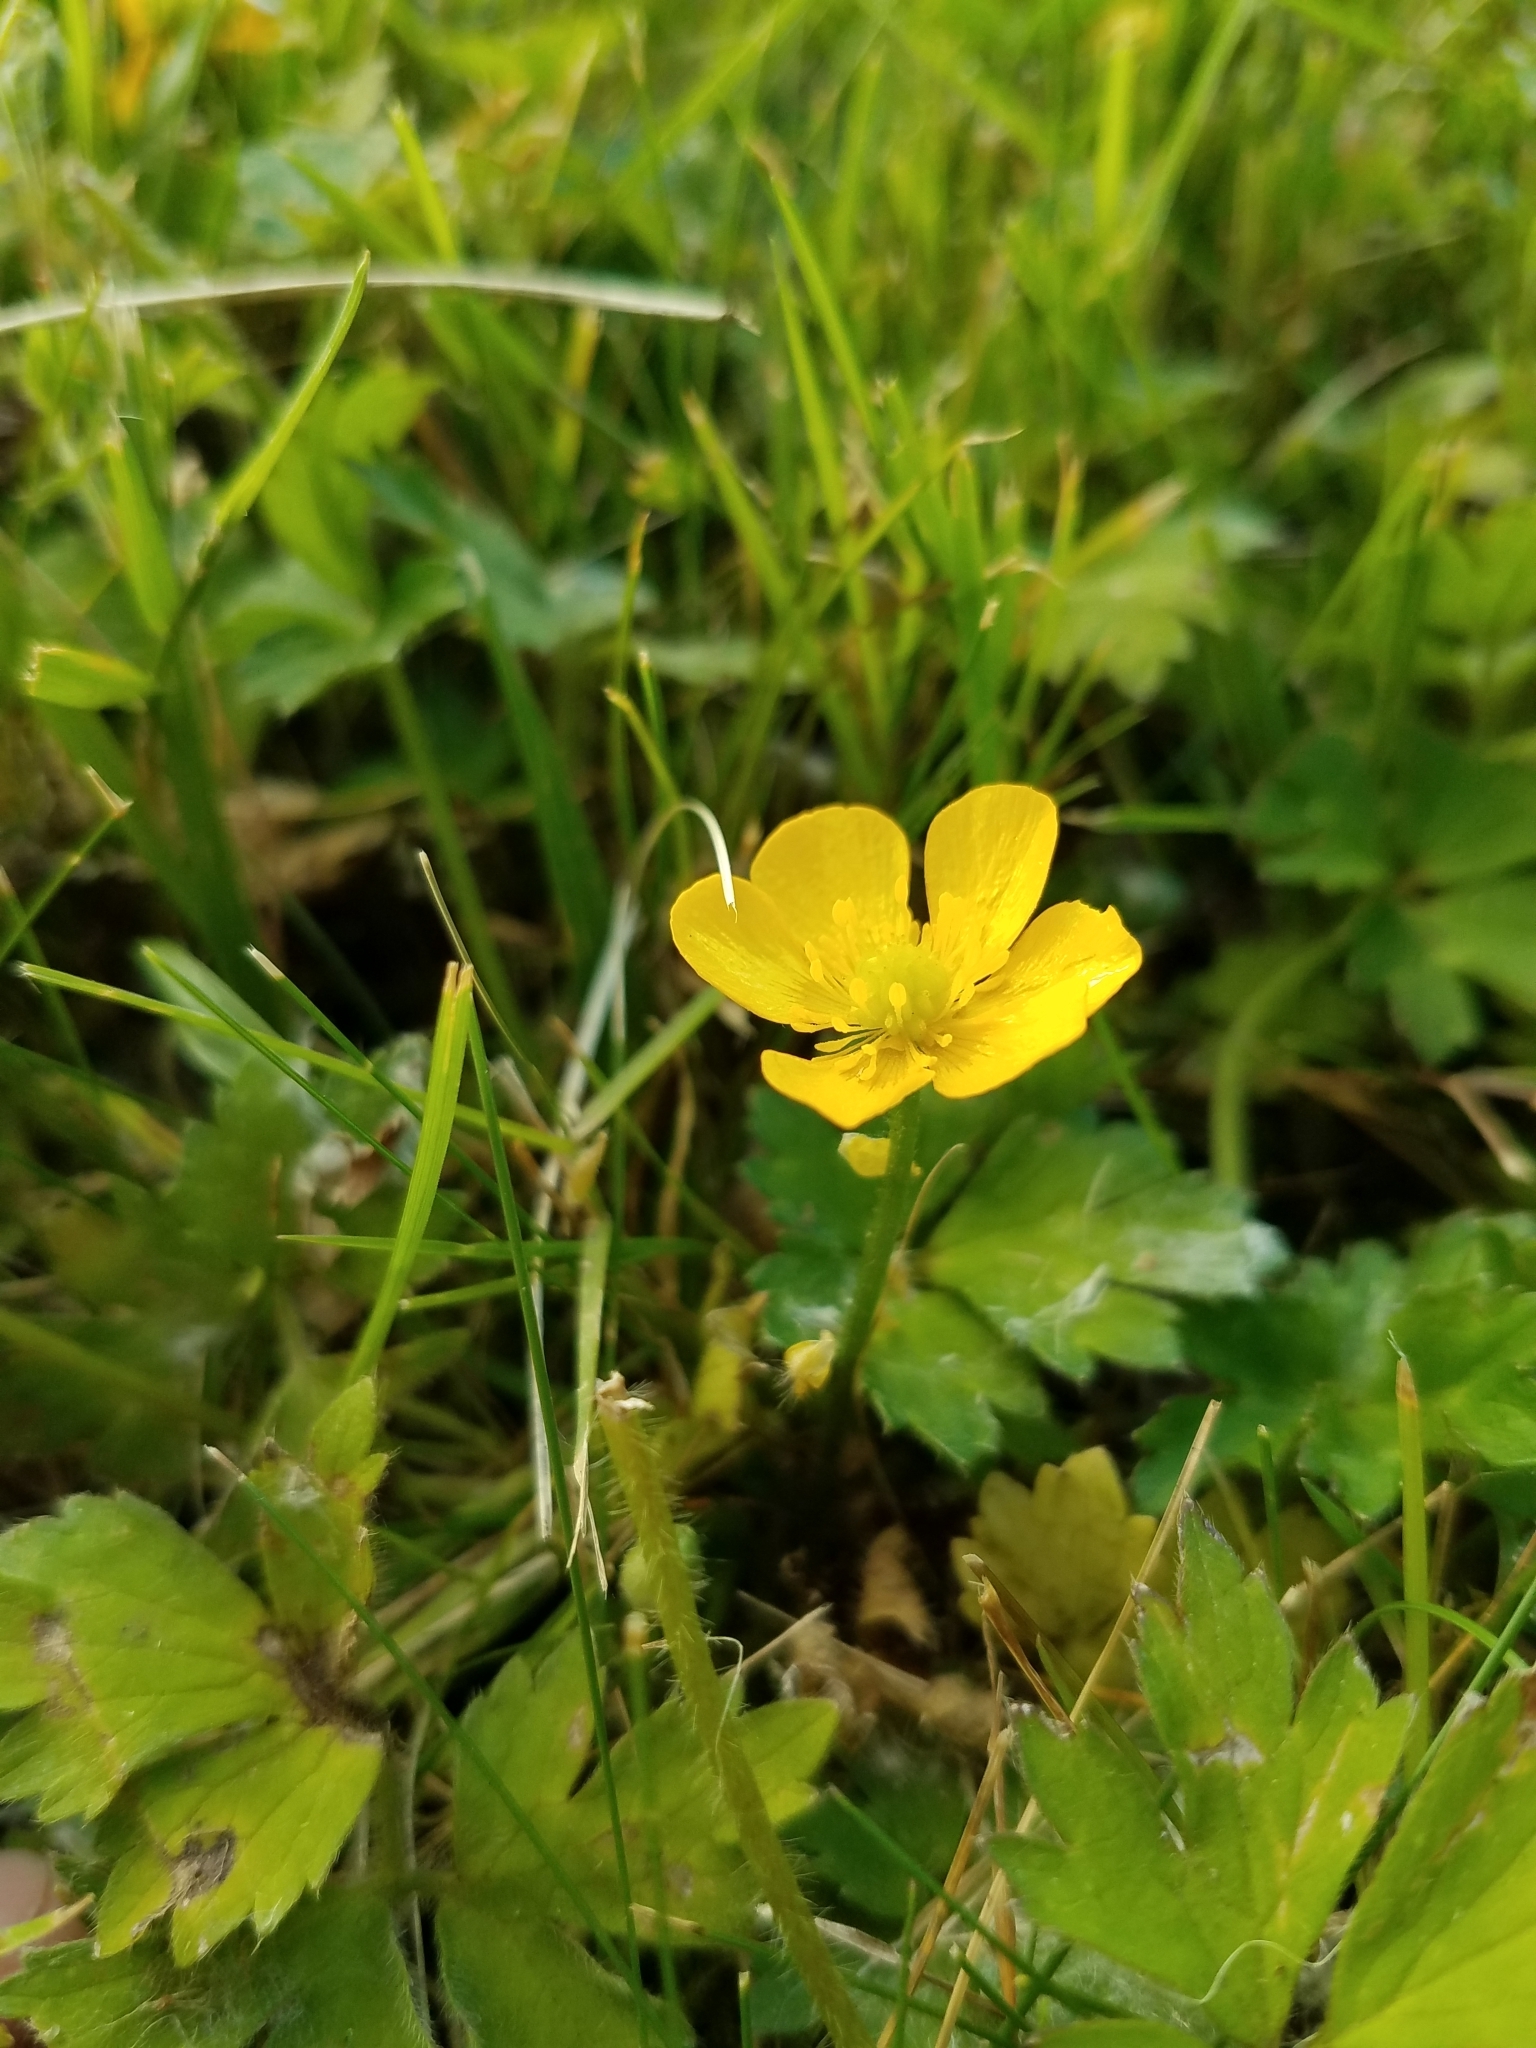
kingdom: Plantae
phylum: Tracheophyta
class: Magnoliopsida
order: Ranunculales
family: Ranunculaceae
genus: Ranunculus
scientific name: Ranunculus repens
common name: Creeping buttercup
